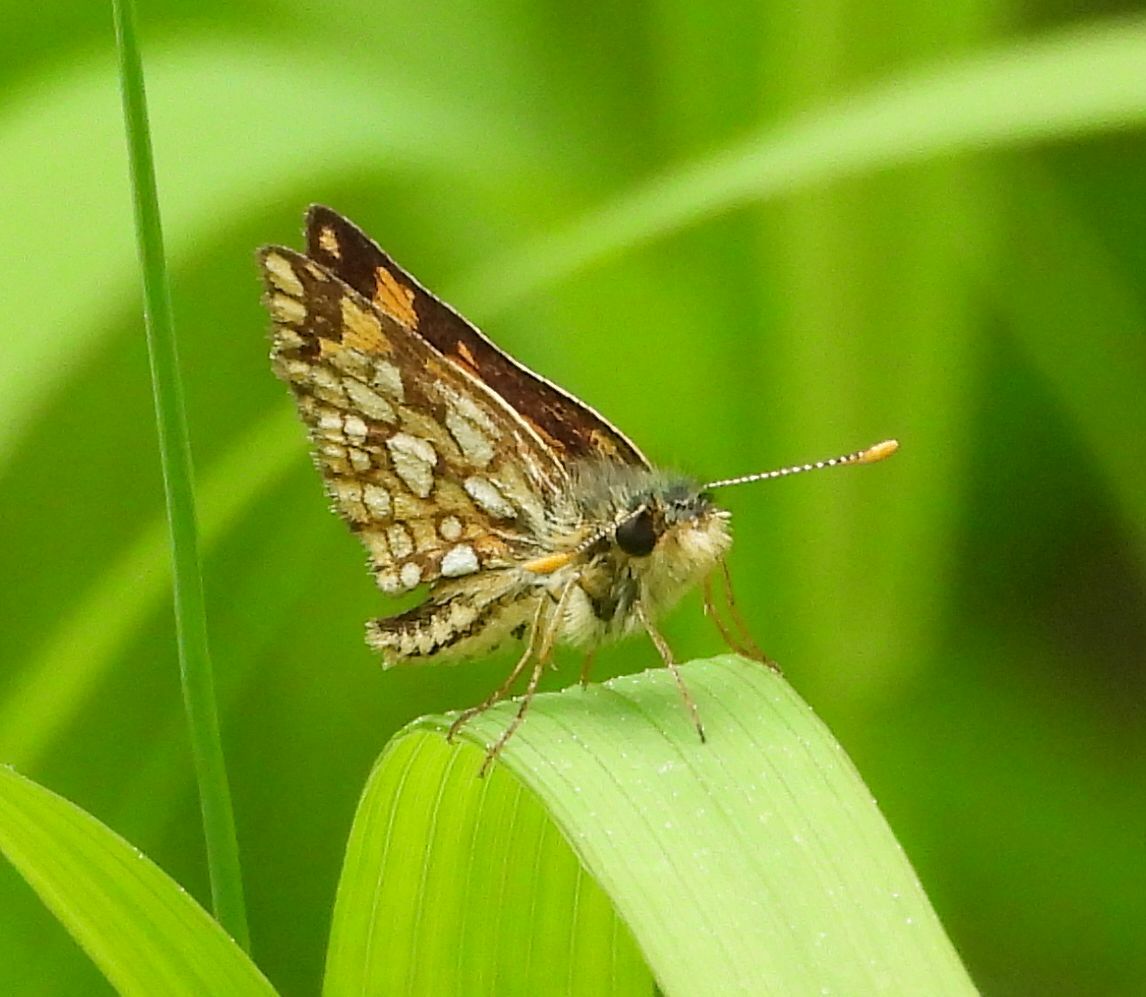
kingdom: Animalia
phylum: Arthropoda
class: Insecta
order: Lepidoptera
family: Hesperiidae
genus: Carterocephalus
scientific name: Carterocephalus mandan
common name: Arctic skipperling
